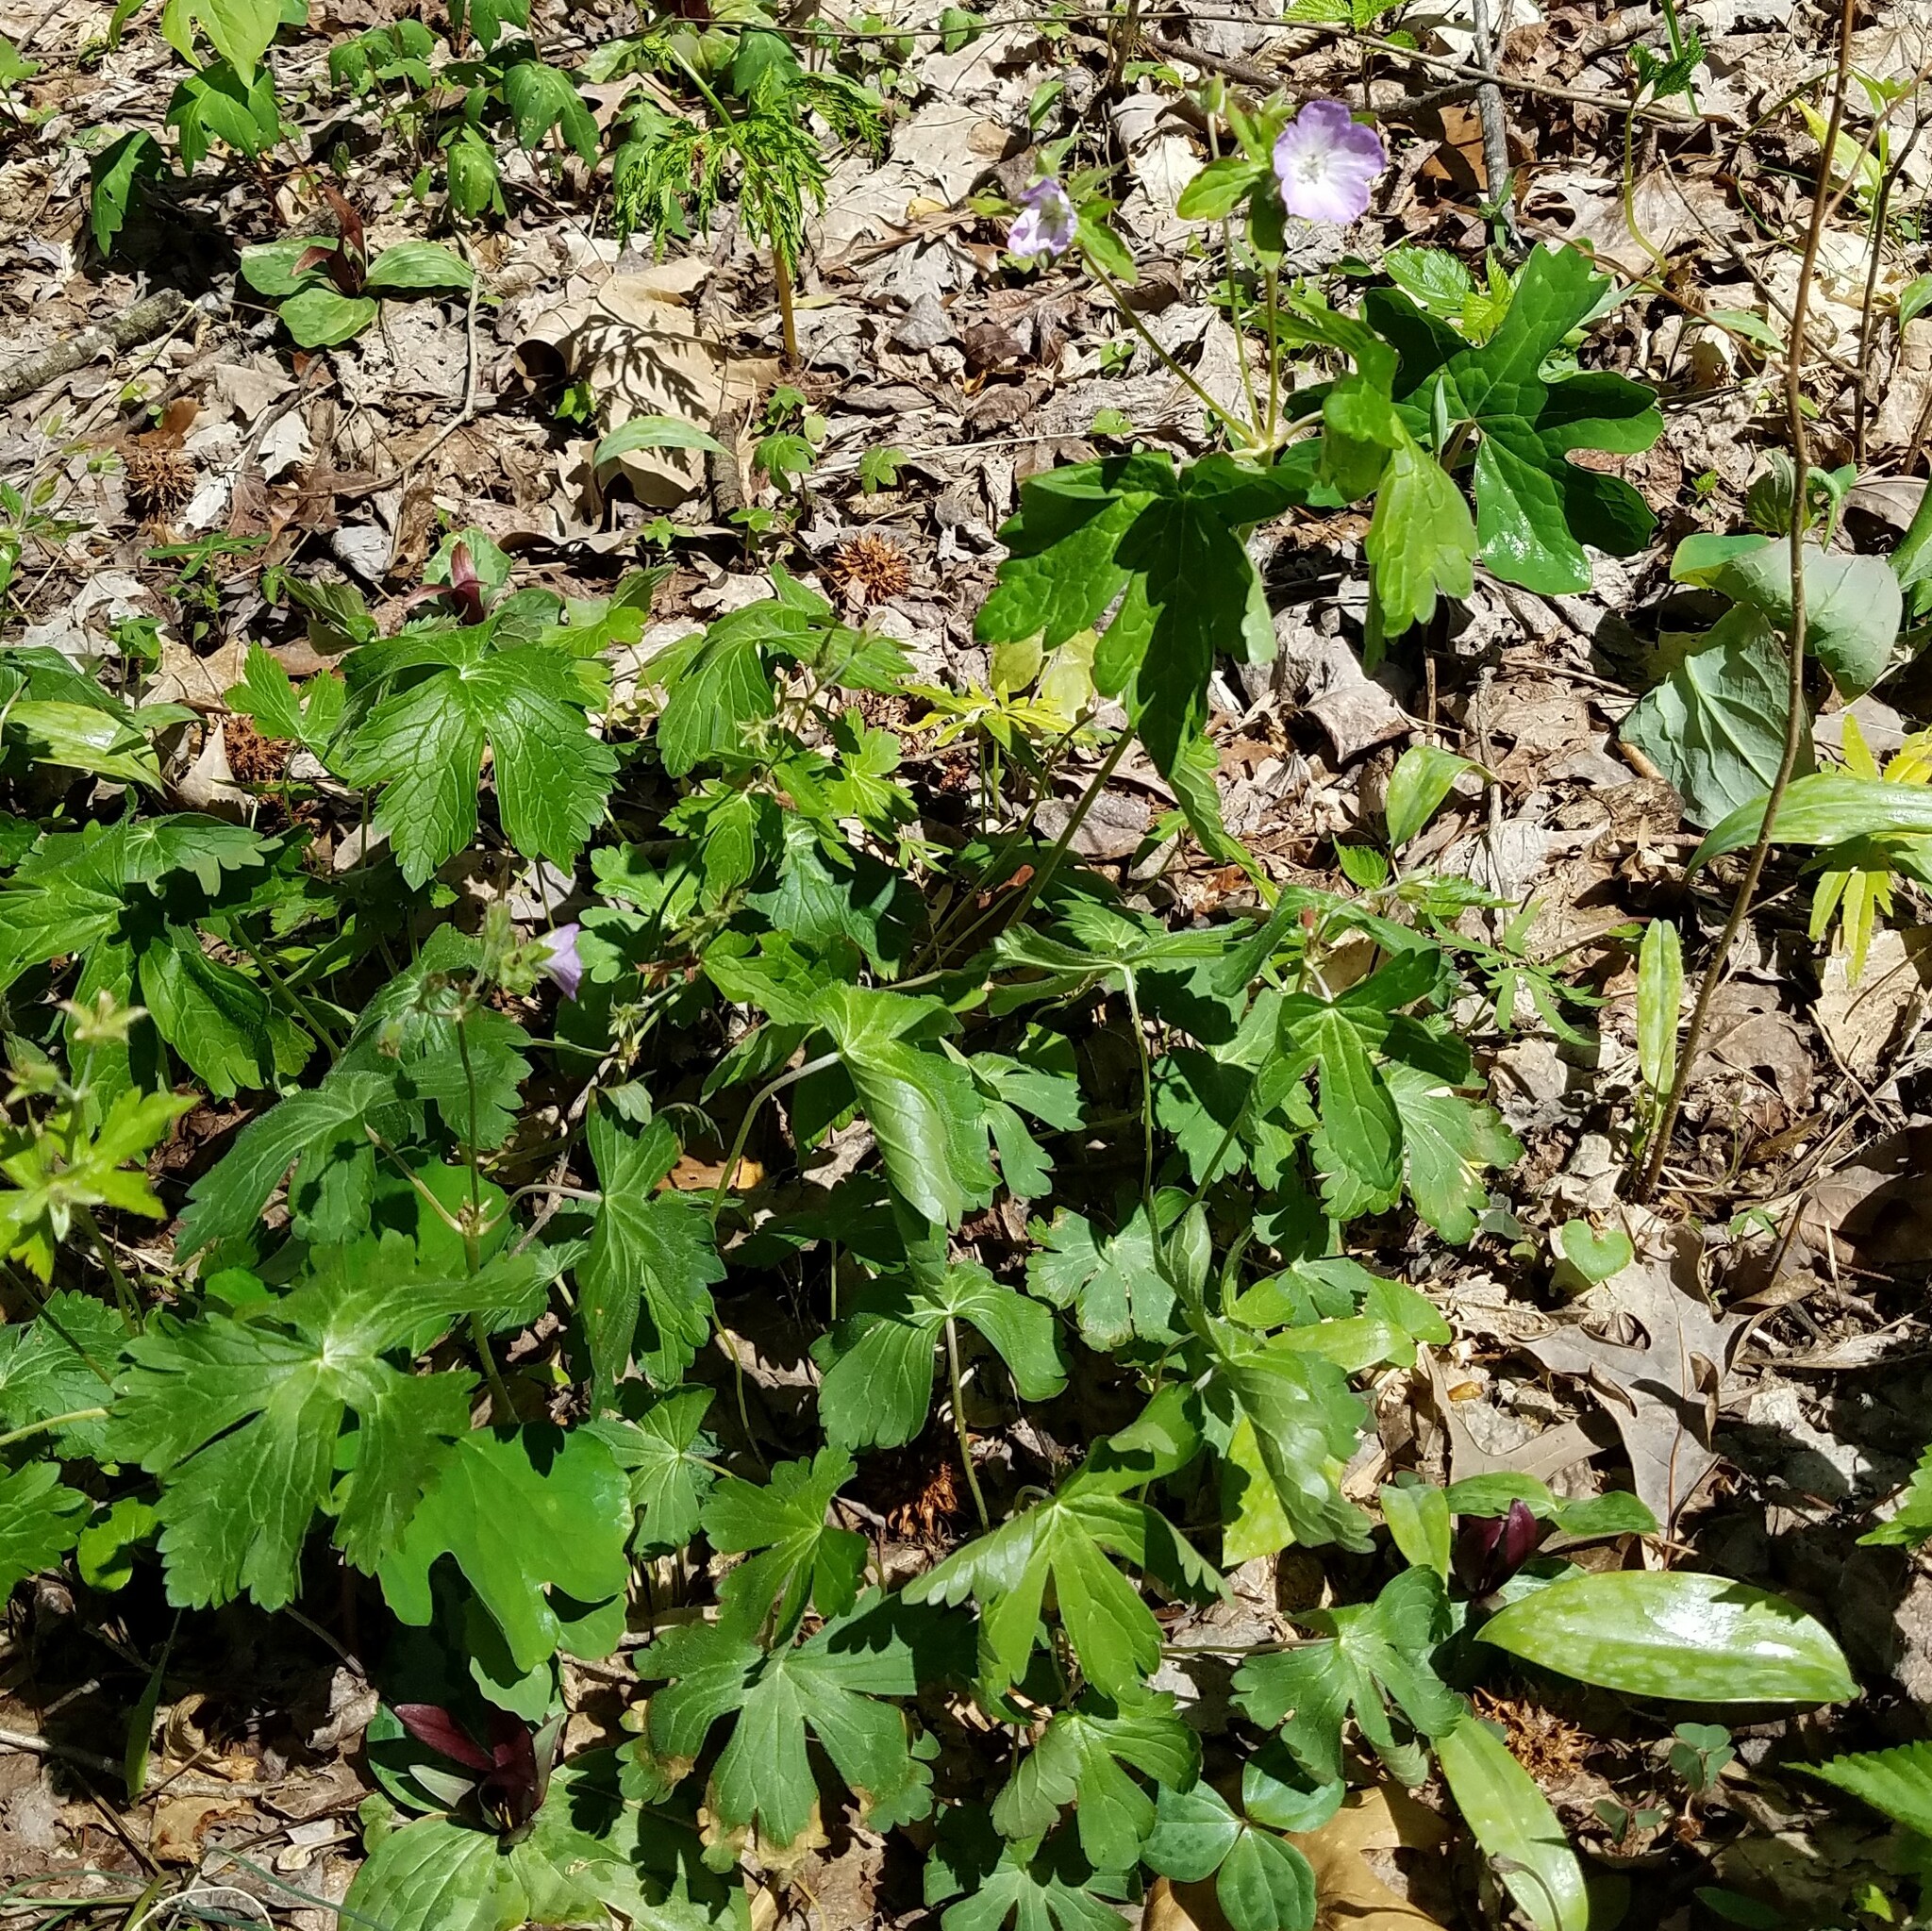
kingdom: Plantae
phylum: Tracheophyta
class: Magnoliopsida
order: Geraniales
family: Geraniaceae
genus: Geranium
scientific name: Geranium maculatum
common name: Spotted geranium
